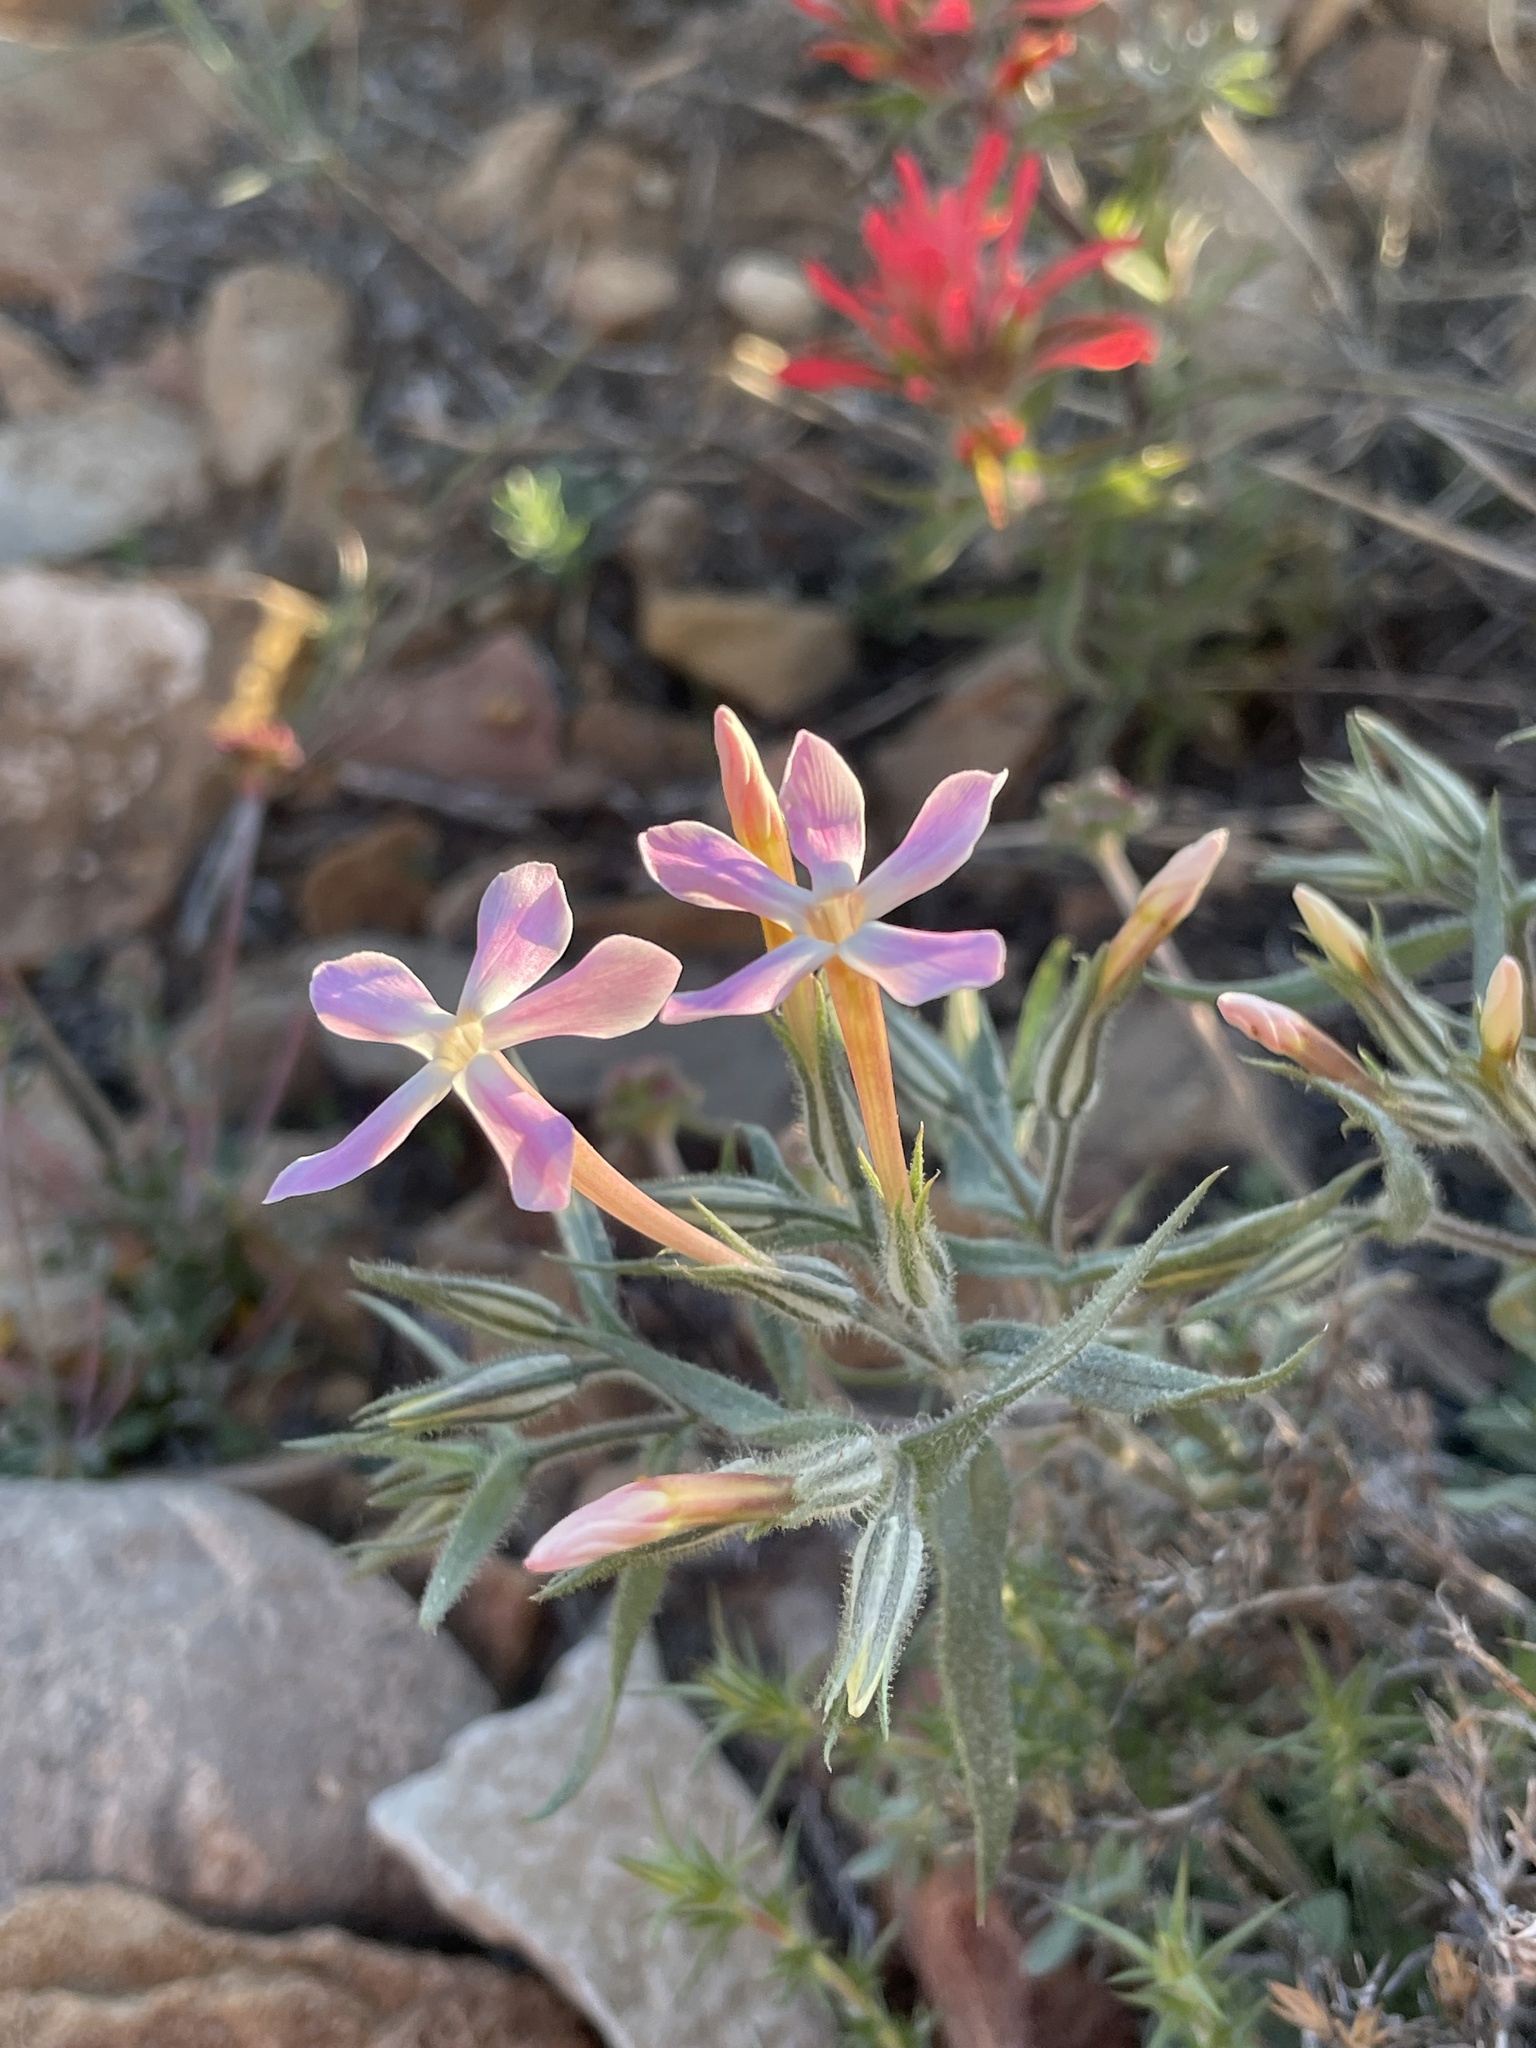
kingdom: Plantae
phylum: Tracheophyta
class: Magnoliopsida
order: Ericales
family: Polemoniaceae
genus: Phlox
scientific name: Phlox longifolia
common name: Longleaf phlox
